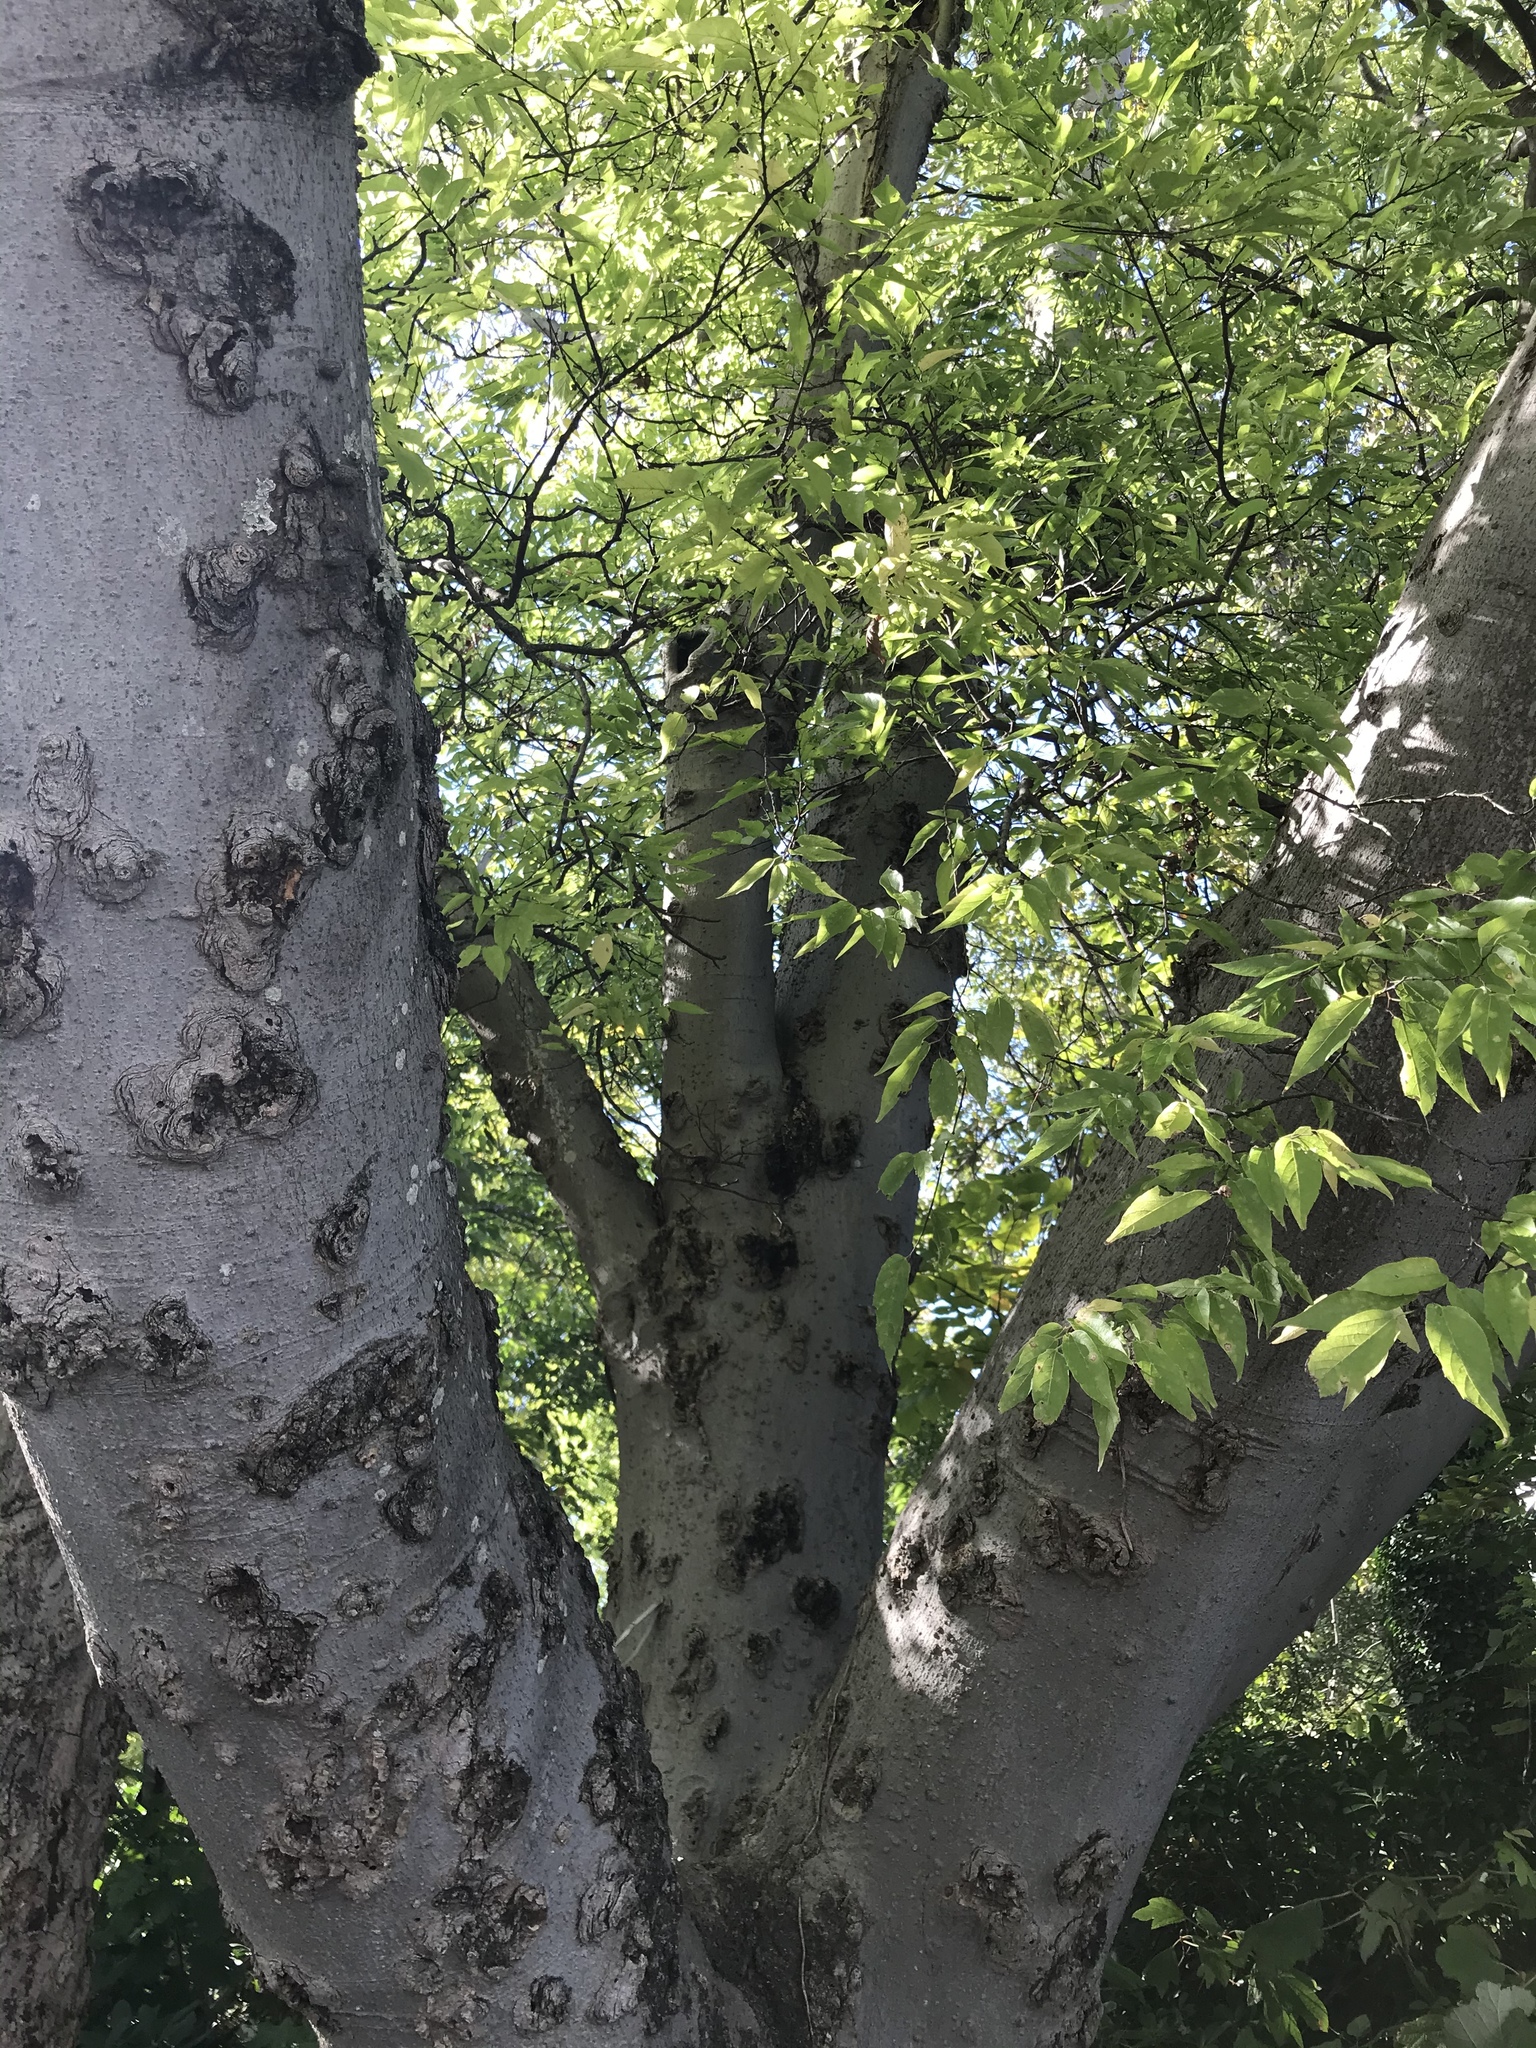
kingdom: Plantae
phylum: Tracheophyta
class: Magnoliopsida
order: Fagales
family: Fagaceae
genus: Fagus
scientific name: Fagus grandifolia
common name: American beech
